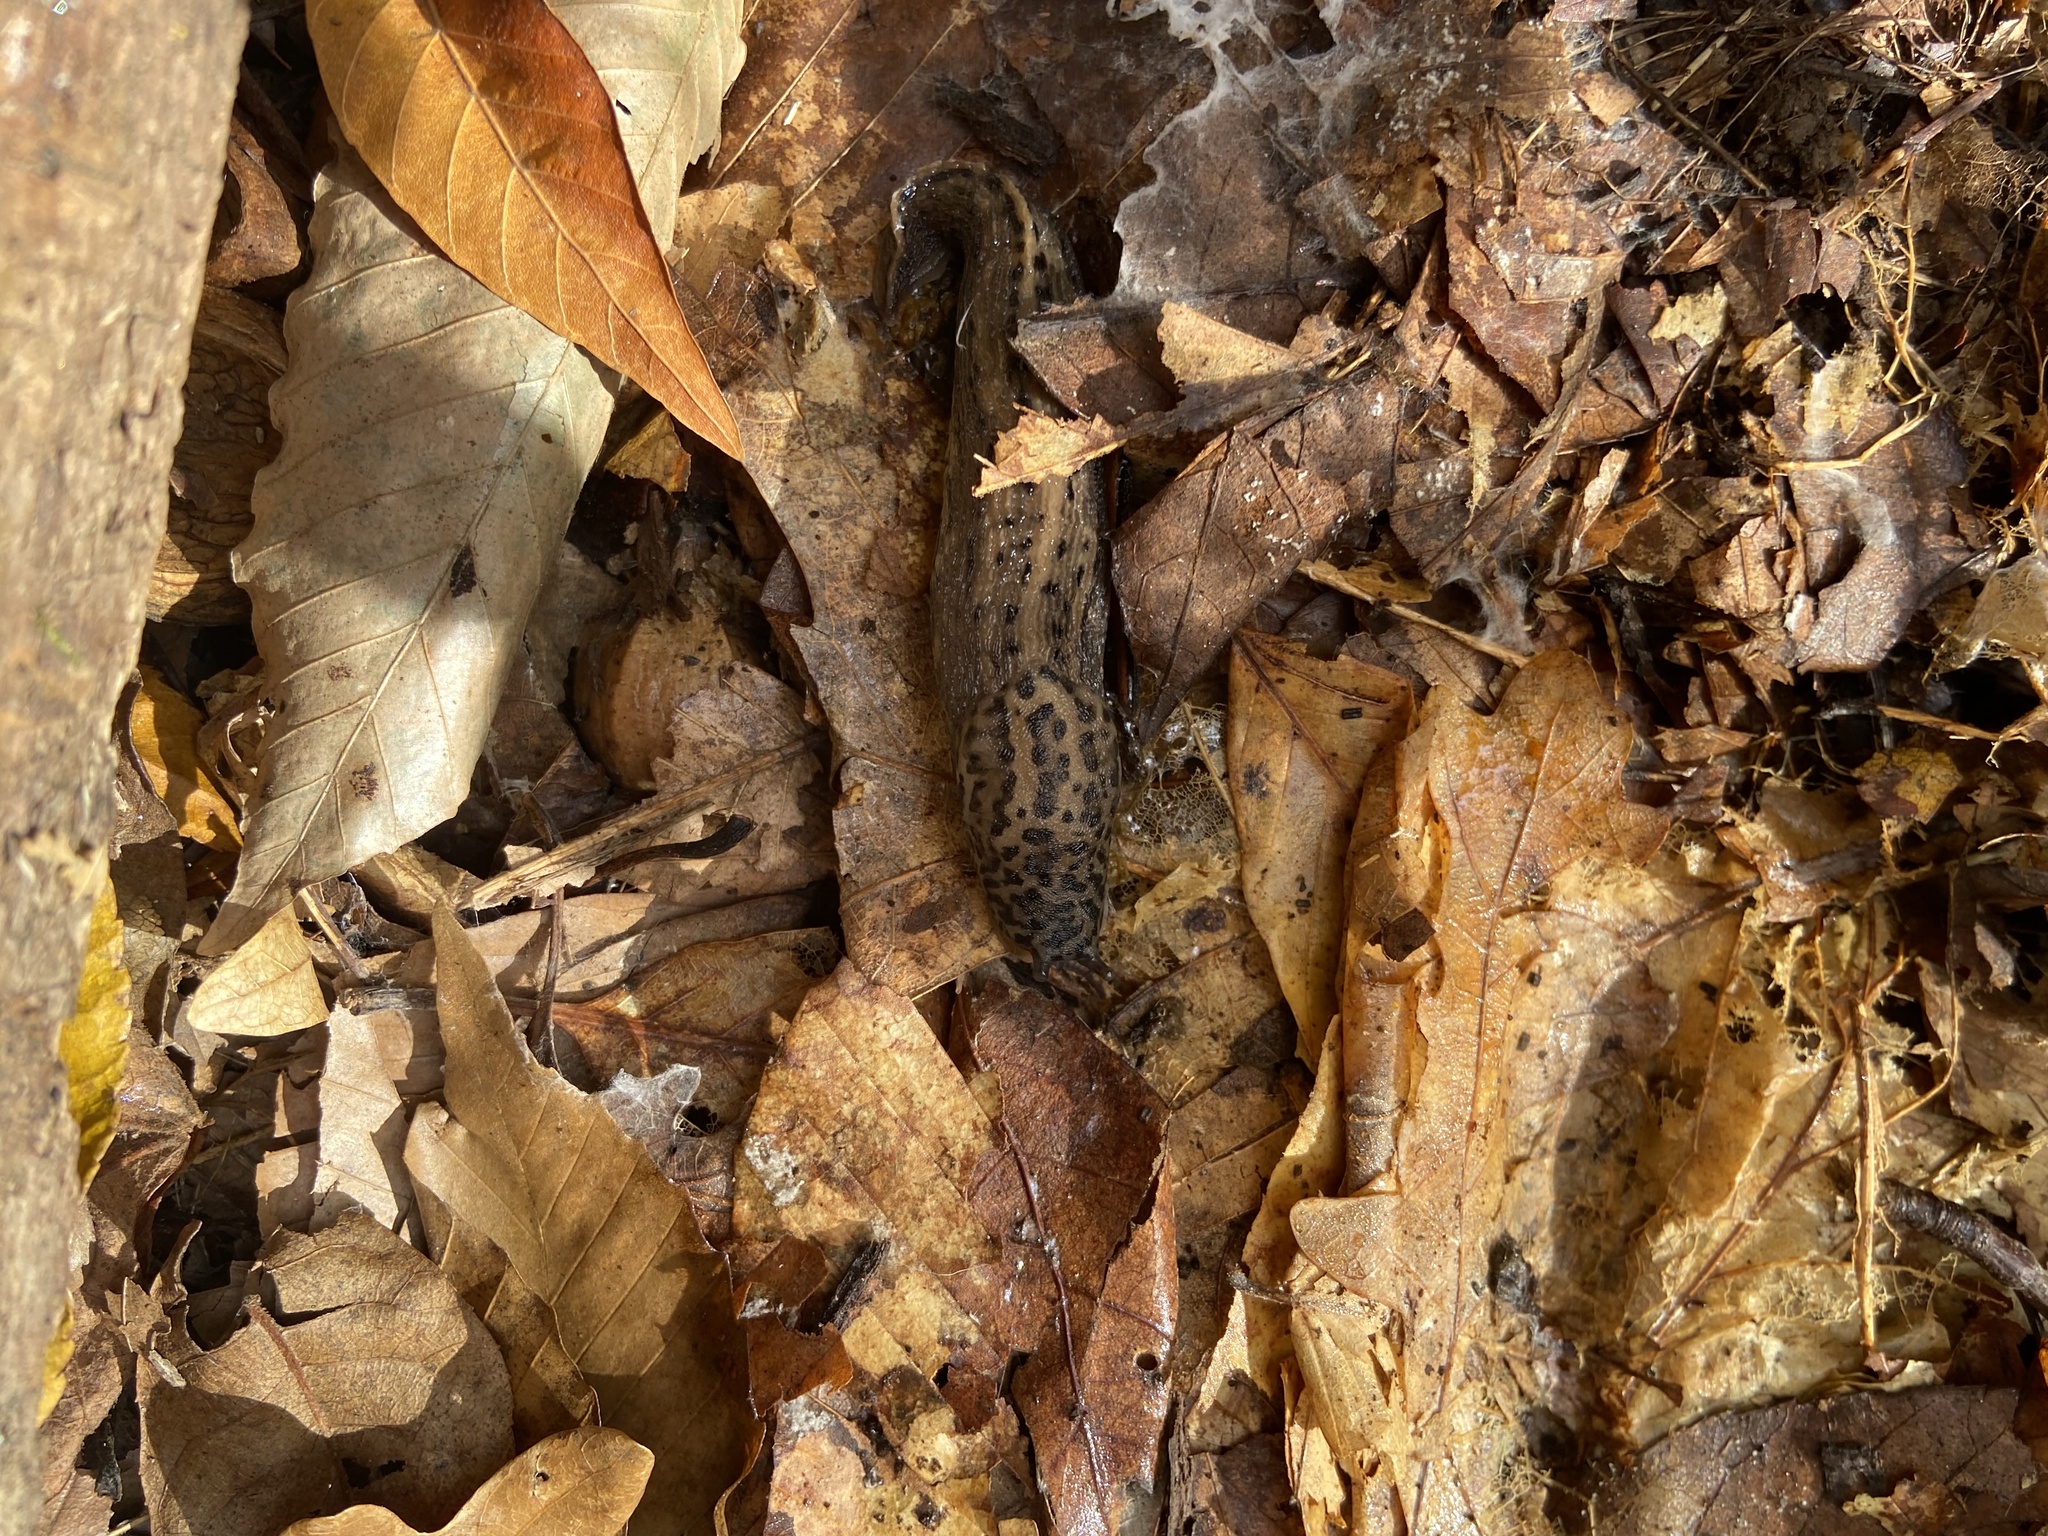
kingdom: Animalia
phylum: Mollusca
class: Gastropoda
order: Stylommatophora
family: Limacidae
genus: Limax
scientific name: Limax maximus
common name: Great grey slug
